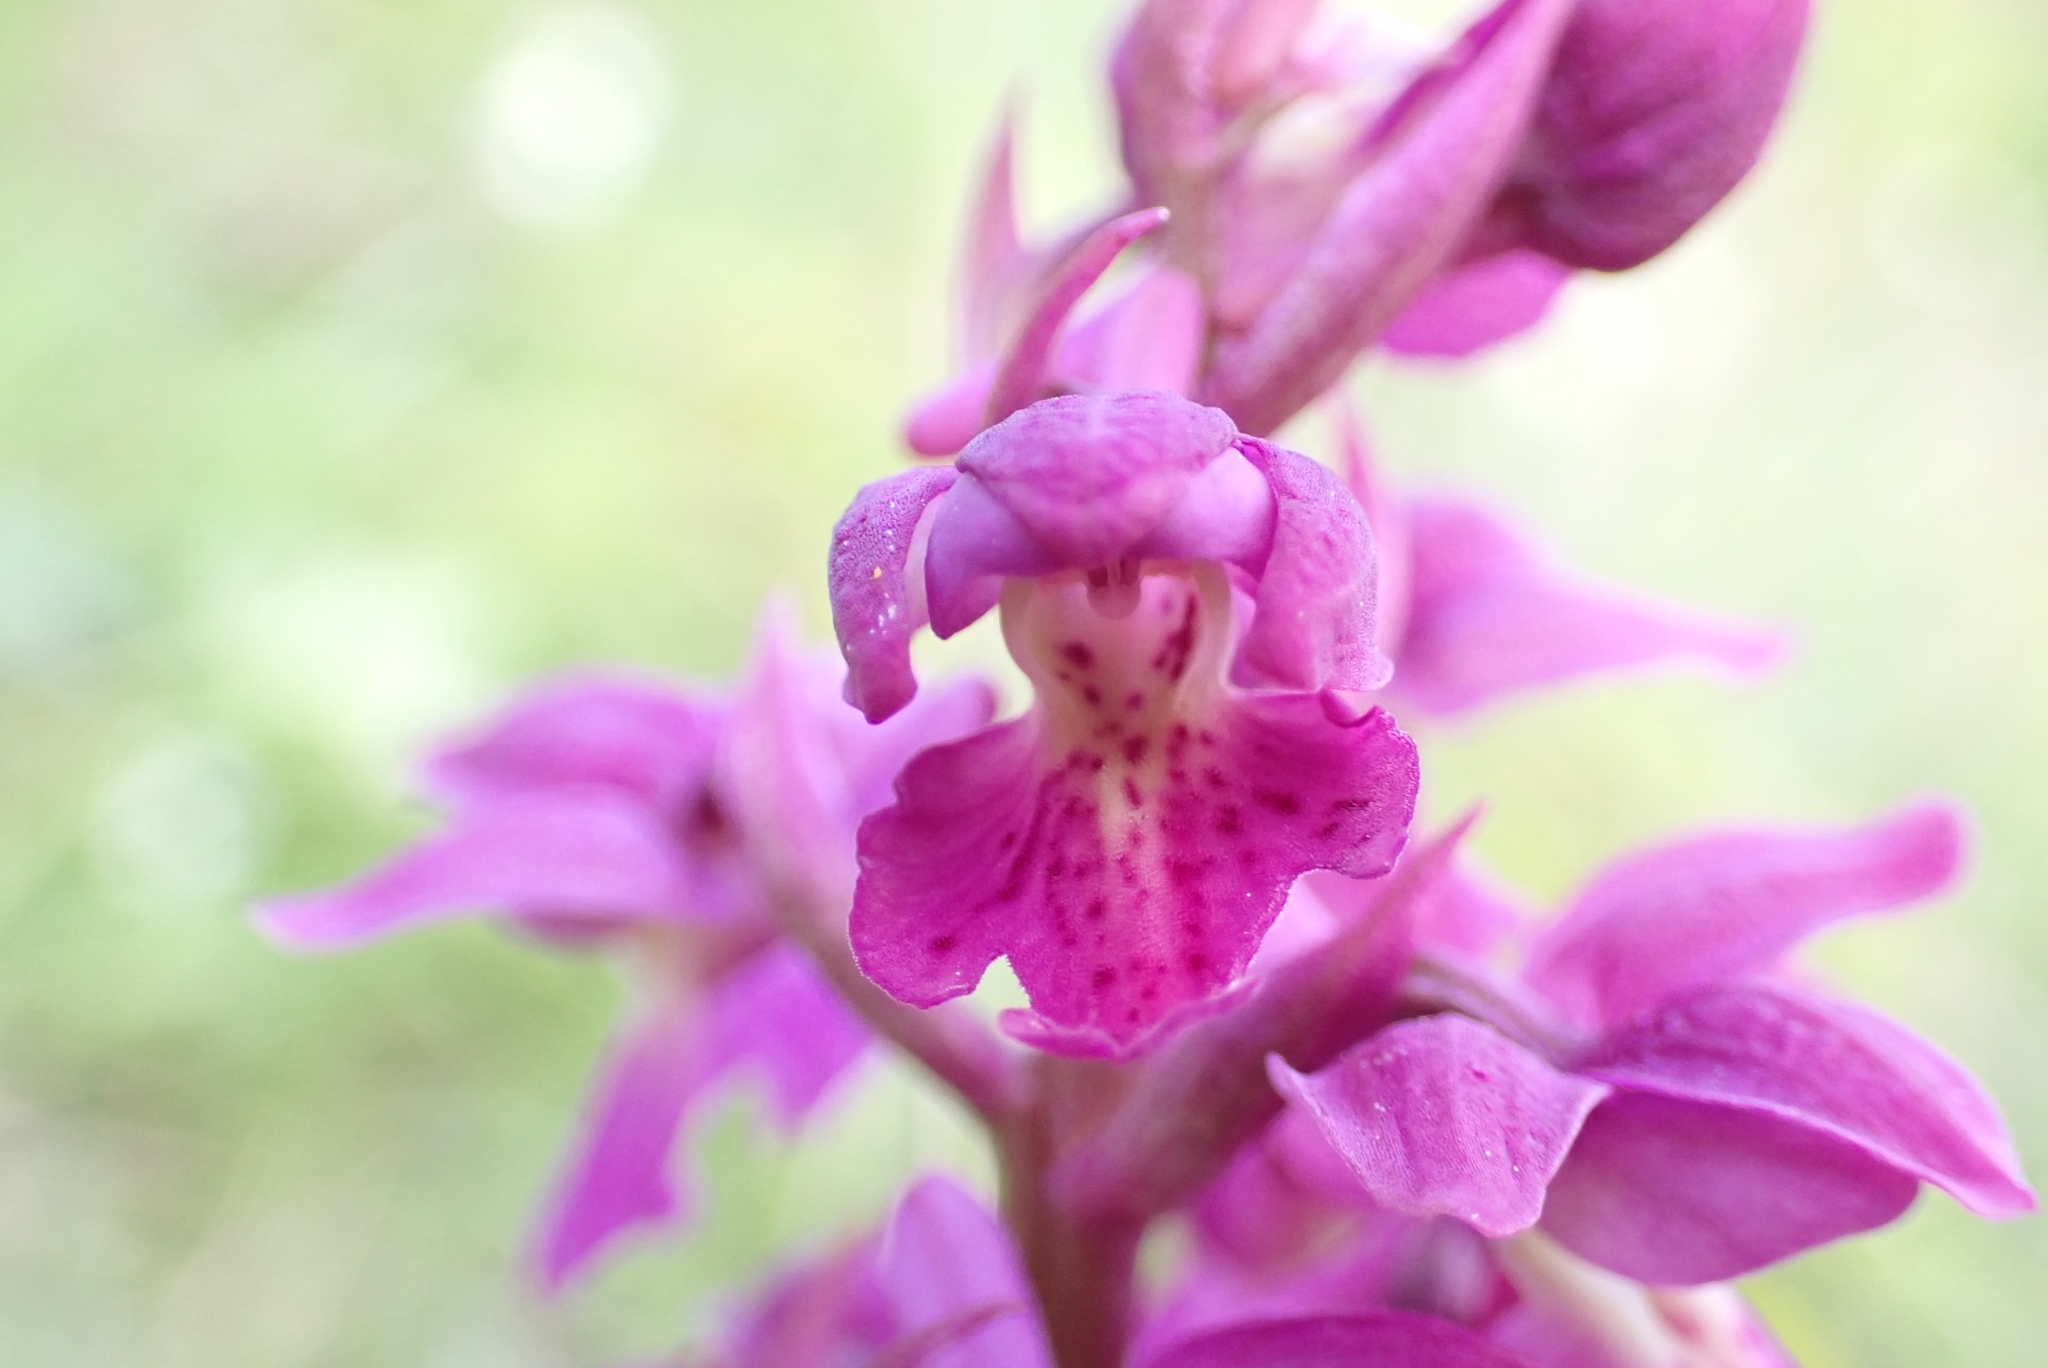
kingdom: Plantae
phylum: Tracheophyta
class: Liliopsida
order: Asparagales
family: Orchidaceae
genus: Orchis
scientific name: Orchis mascula
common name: Early-purple orchid
